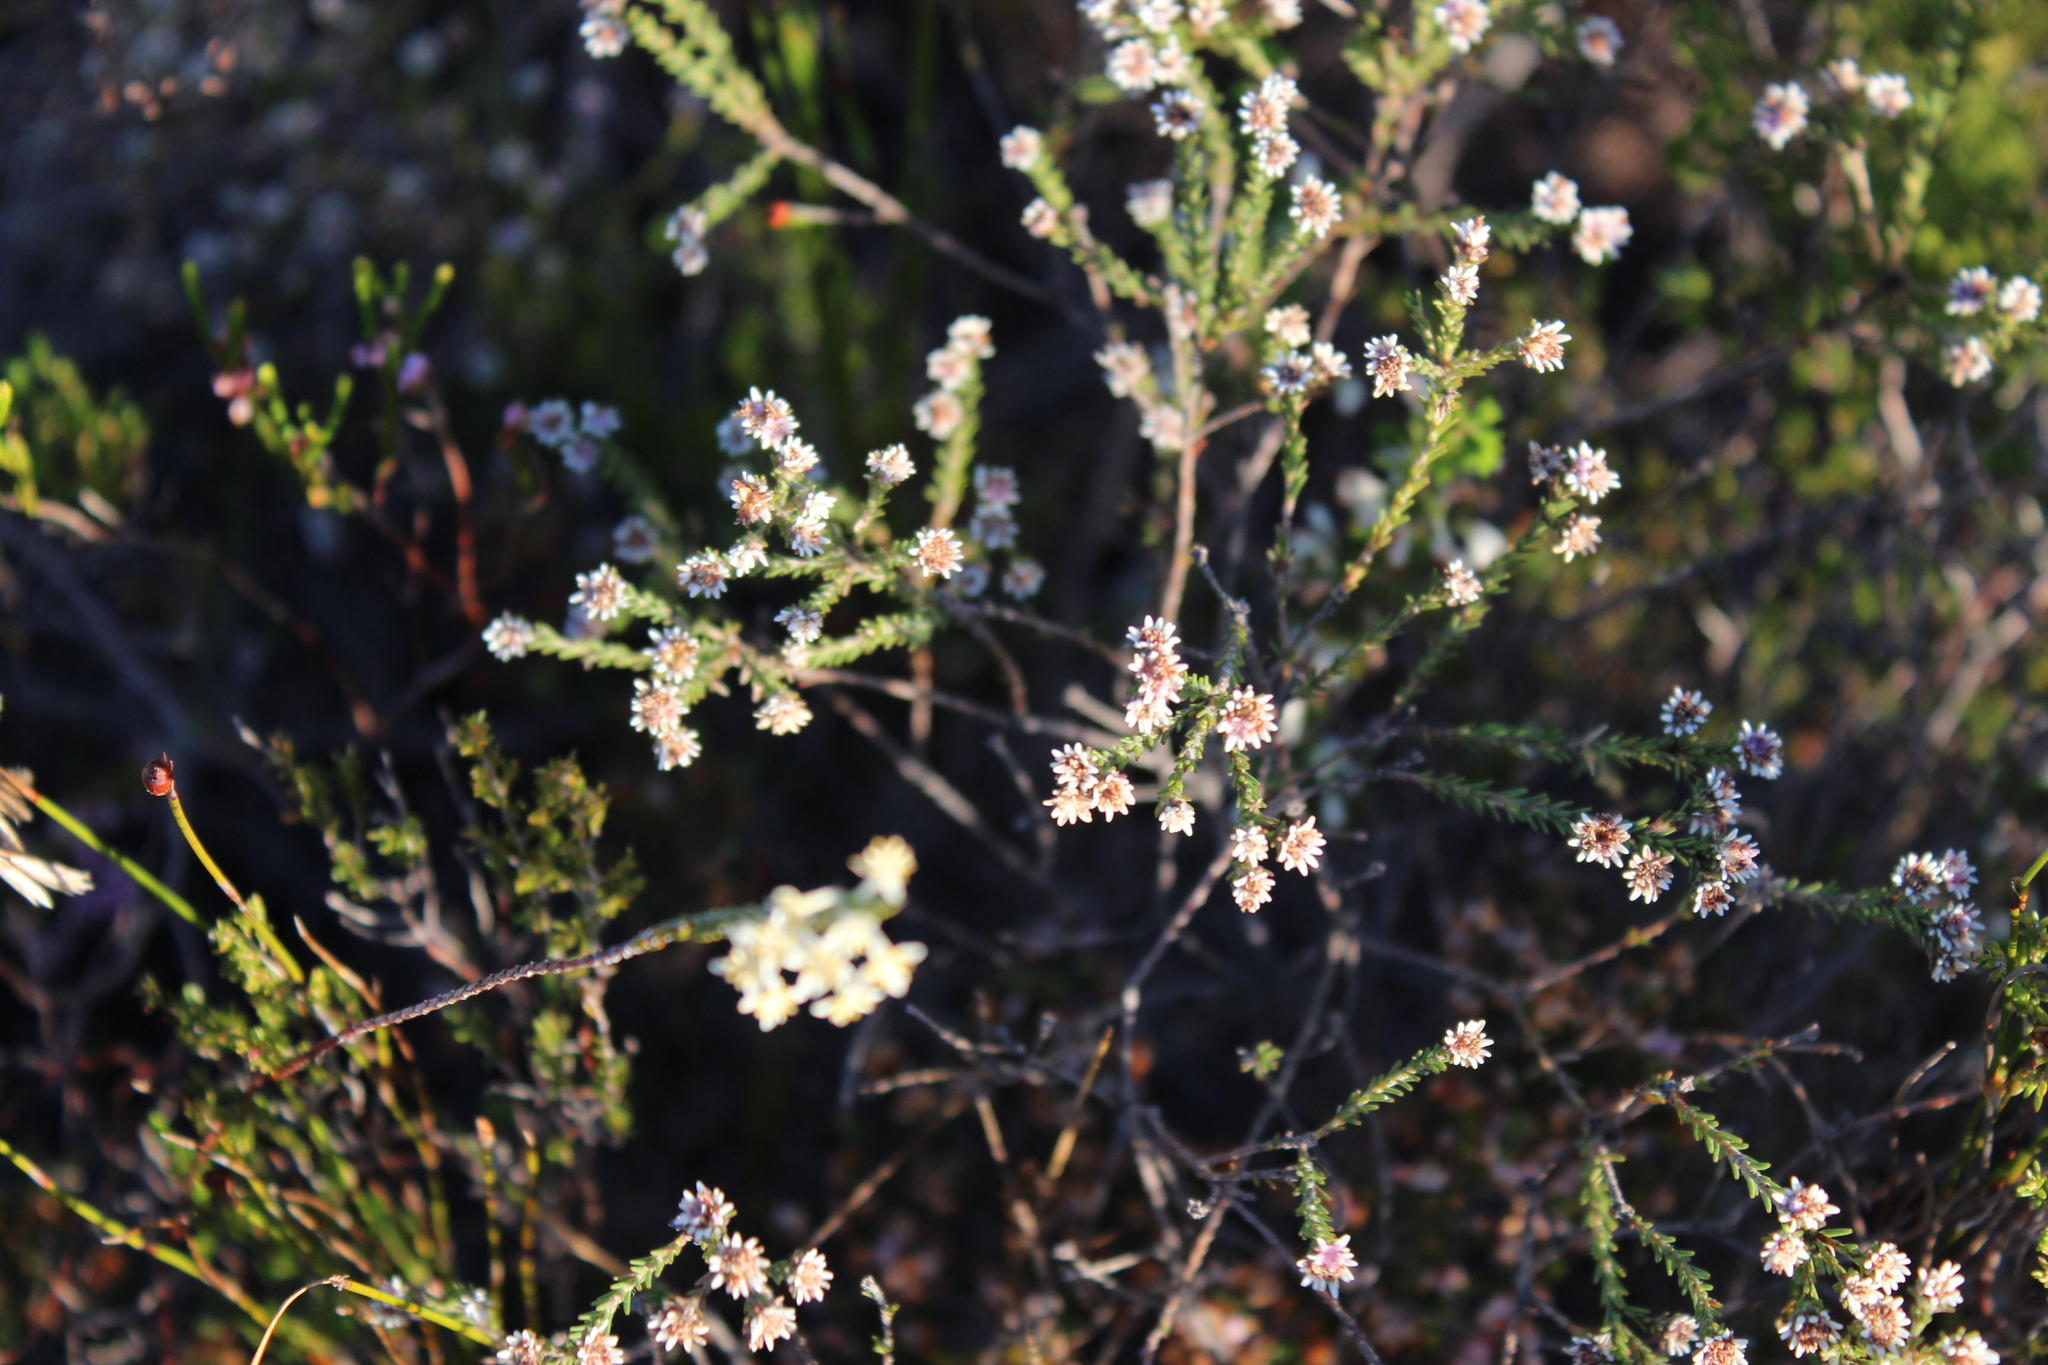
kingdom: Plantae
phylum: Tracheophyta
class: Magnoliopsida
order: Bruniales
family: Bruniaceae
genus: Staavia
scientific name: Staavia radiata
